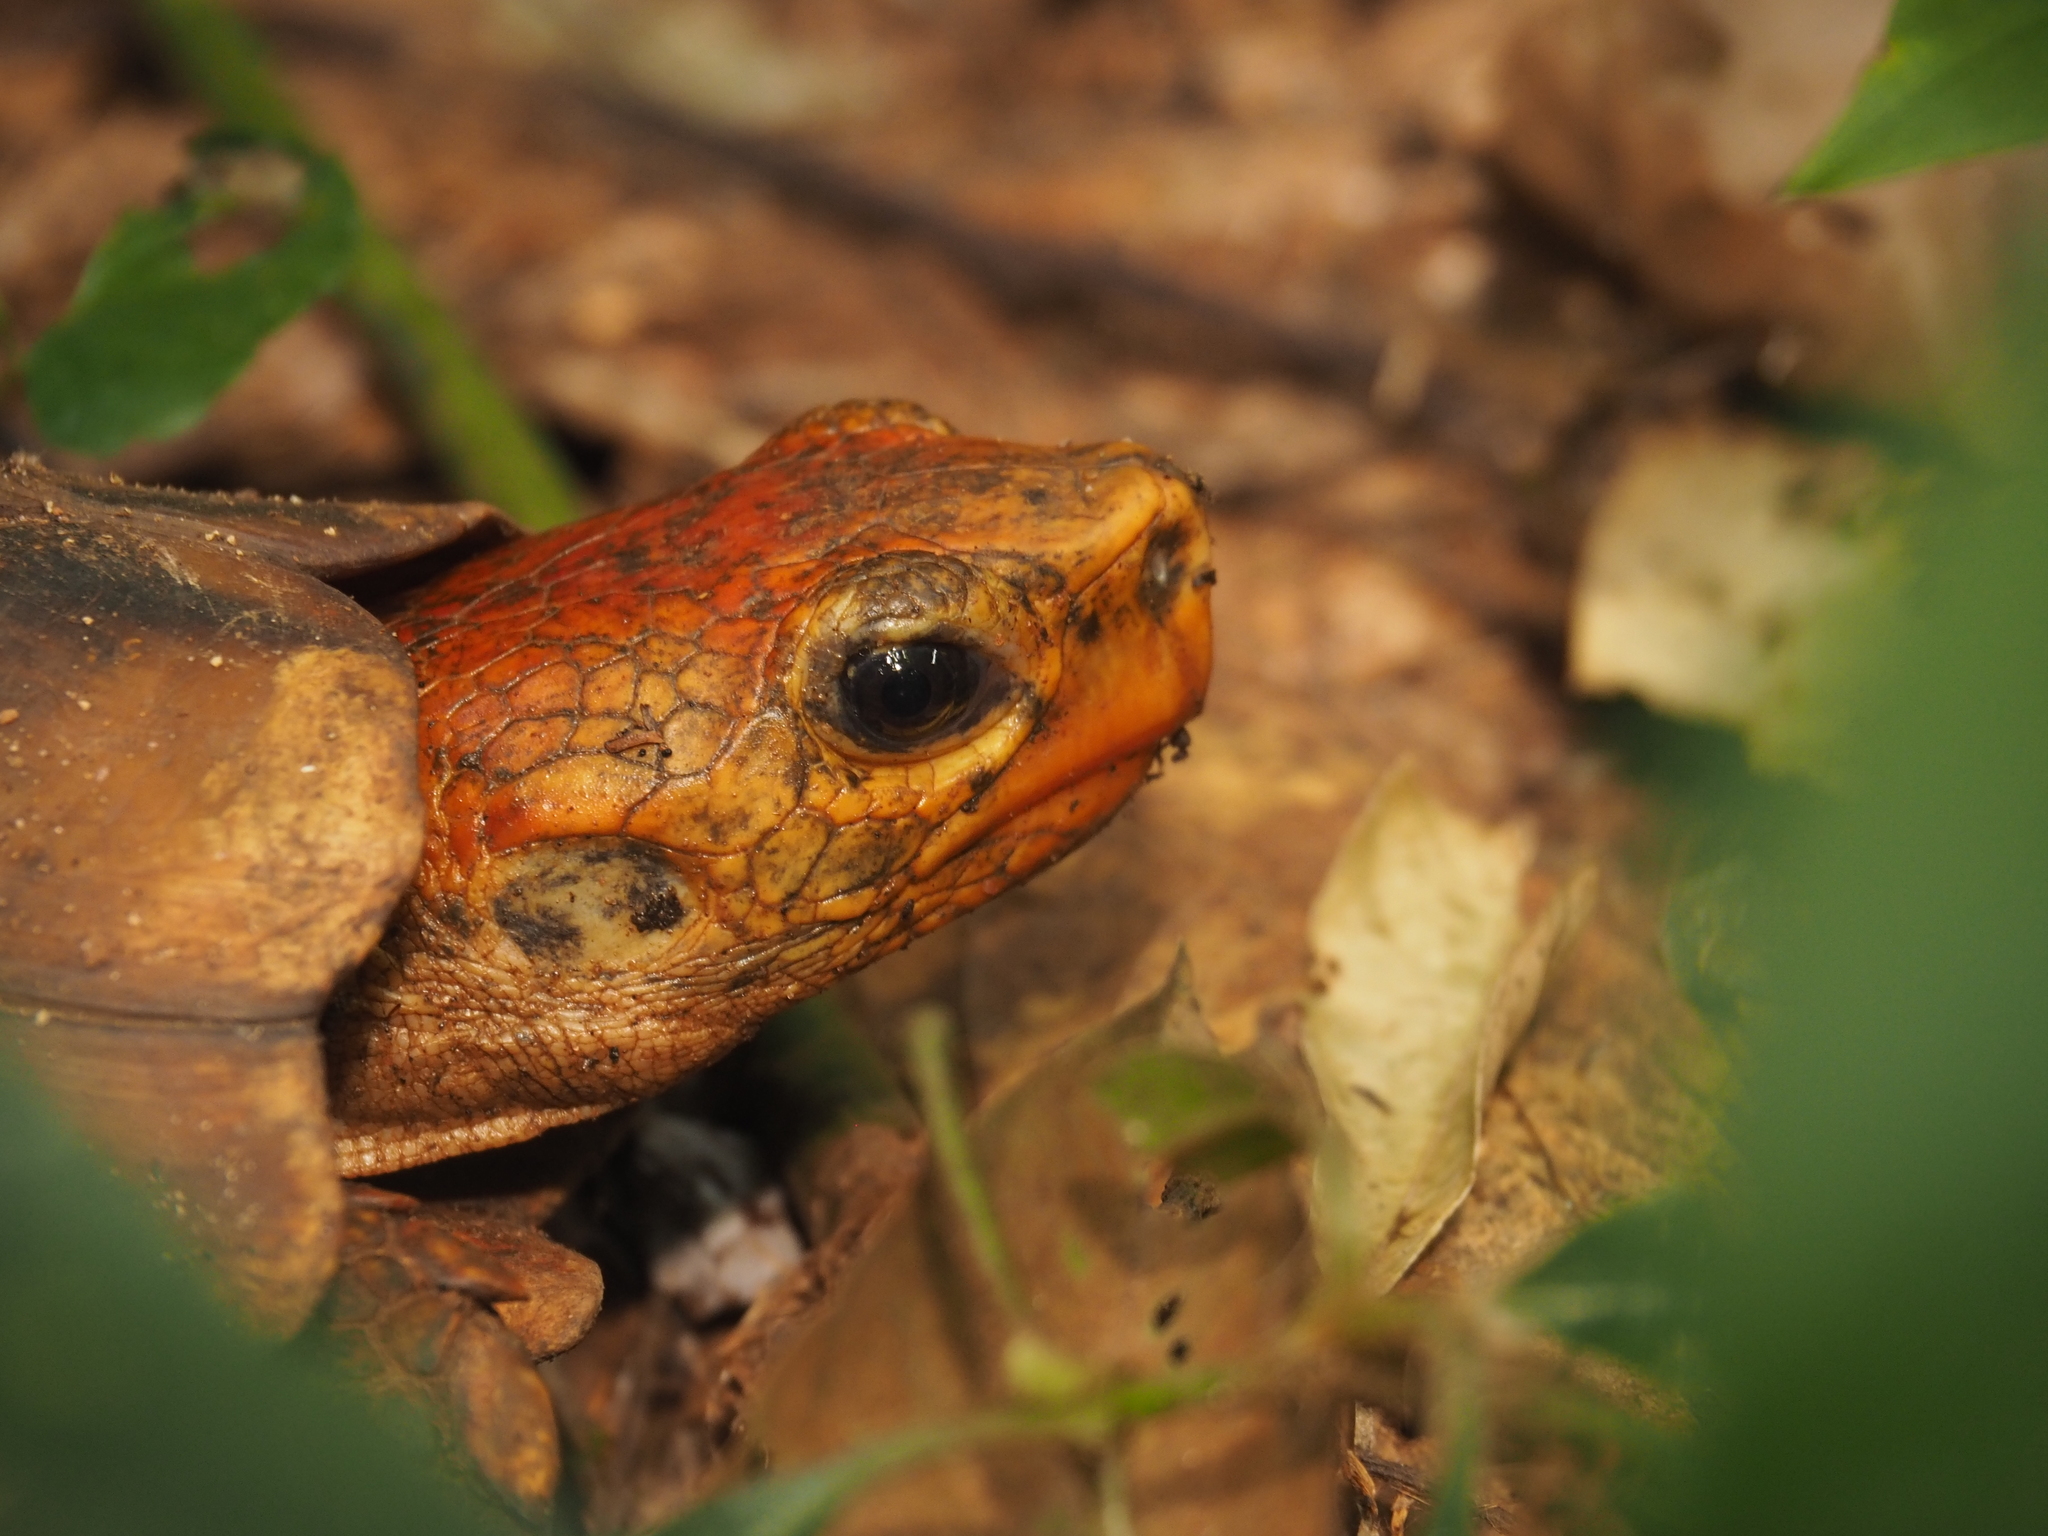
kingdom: Animalia
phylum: Chordata
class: Testudines
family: Testudinidae
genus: Kinixys
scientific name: Kinixys erosa
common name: Serrated hinge-back tortoise
